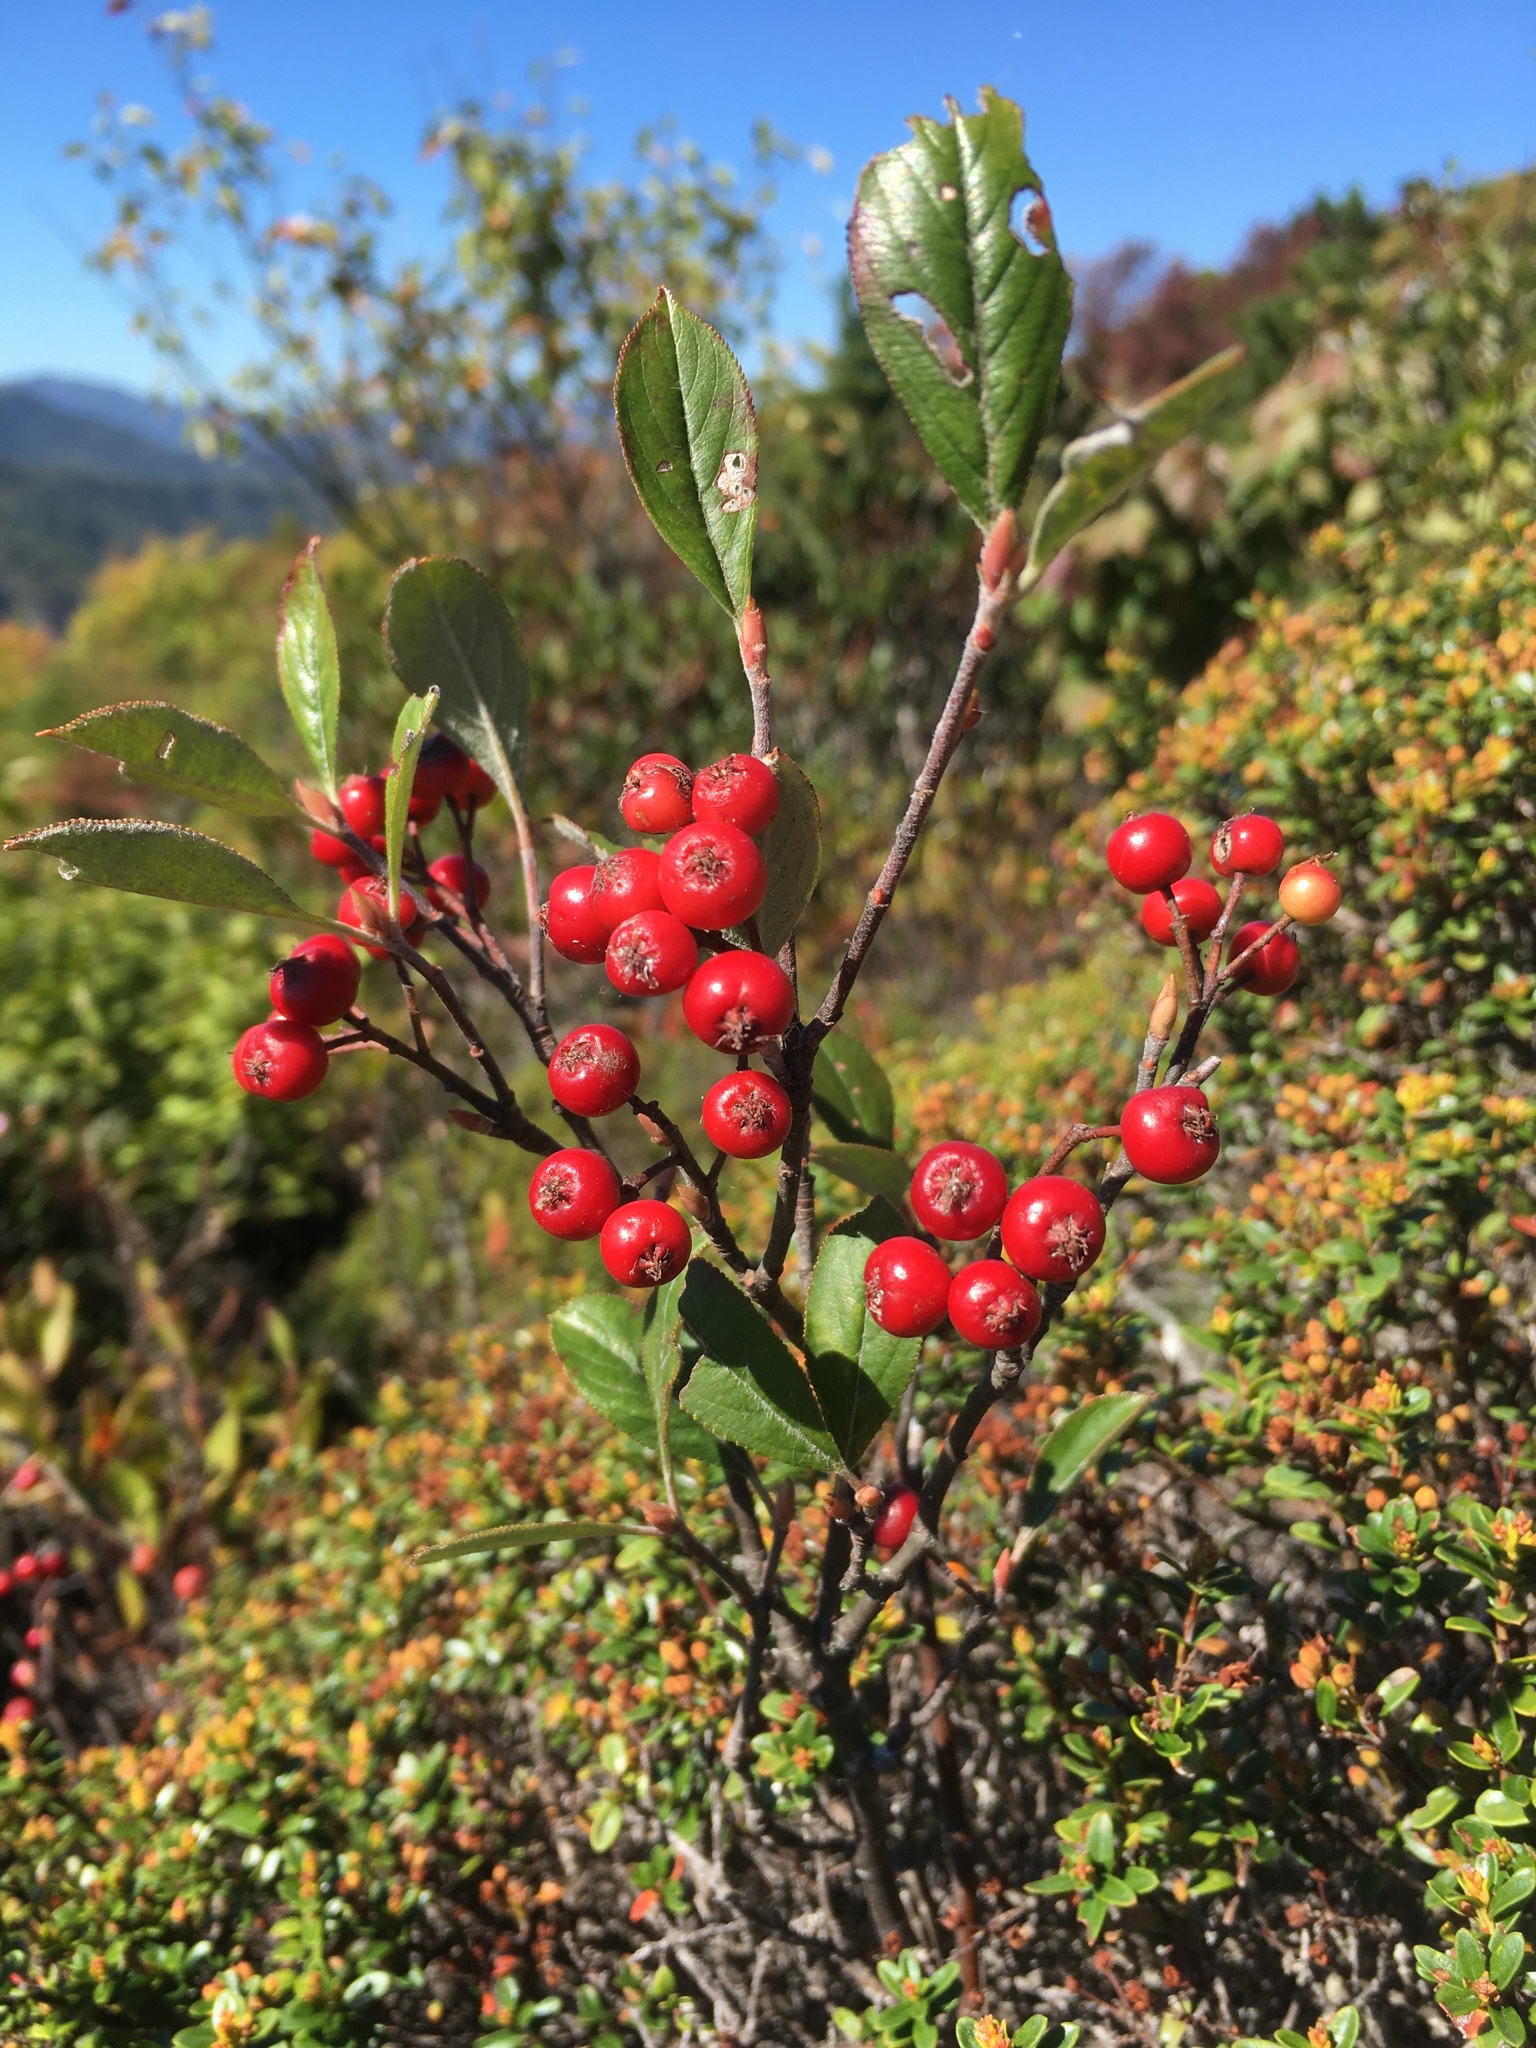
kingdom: Plantae
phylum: Tracheophyta
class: Magnoliopsida
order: Rosales
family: Rosaceae
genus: Aronia
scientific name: Aronia arbutifolia
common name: Red chokeberry
